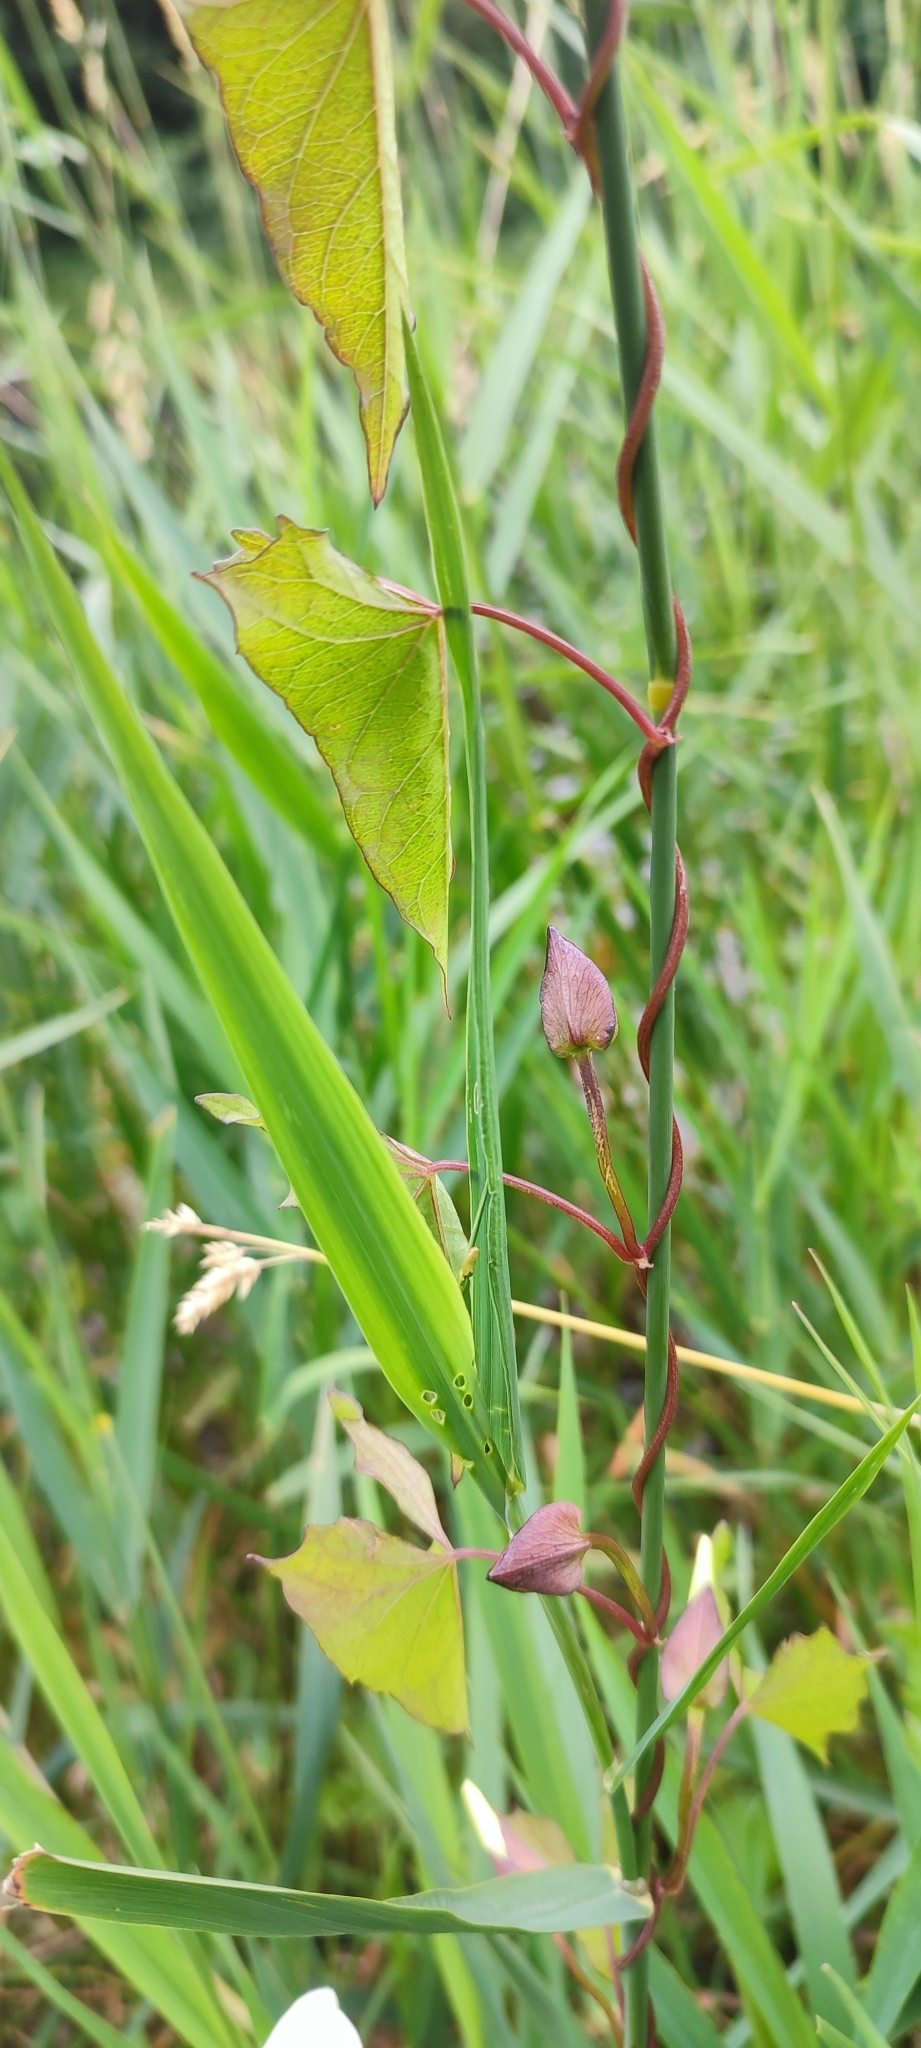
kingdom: Plantae
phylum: Tracheophyta
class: Magnoliopsida
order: Solanales
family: Convolvulaceae
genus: Calystegia
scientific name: Calystegia sepium
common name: Hedge bindweed
